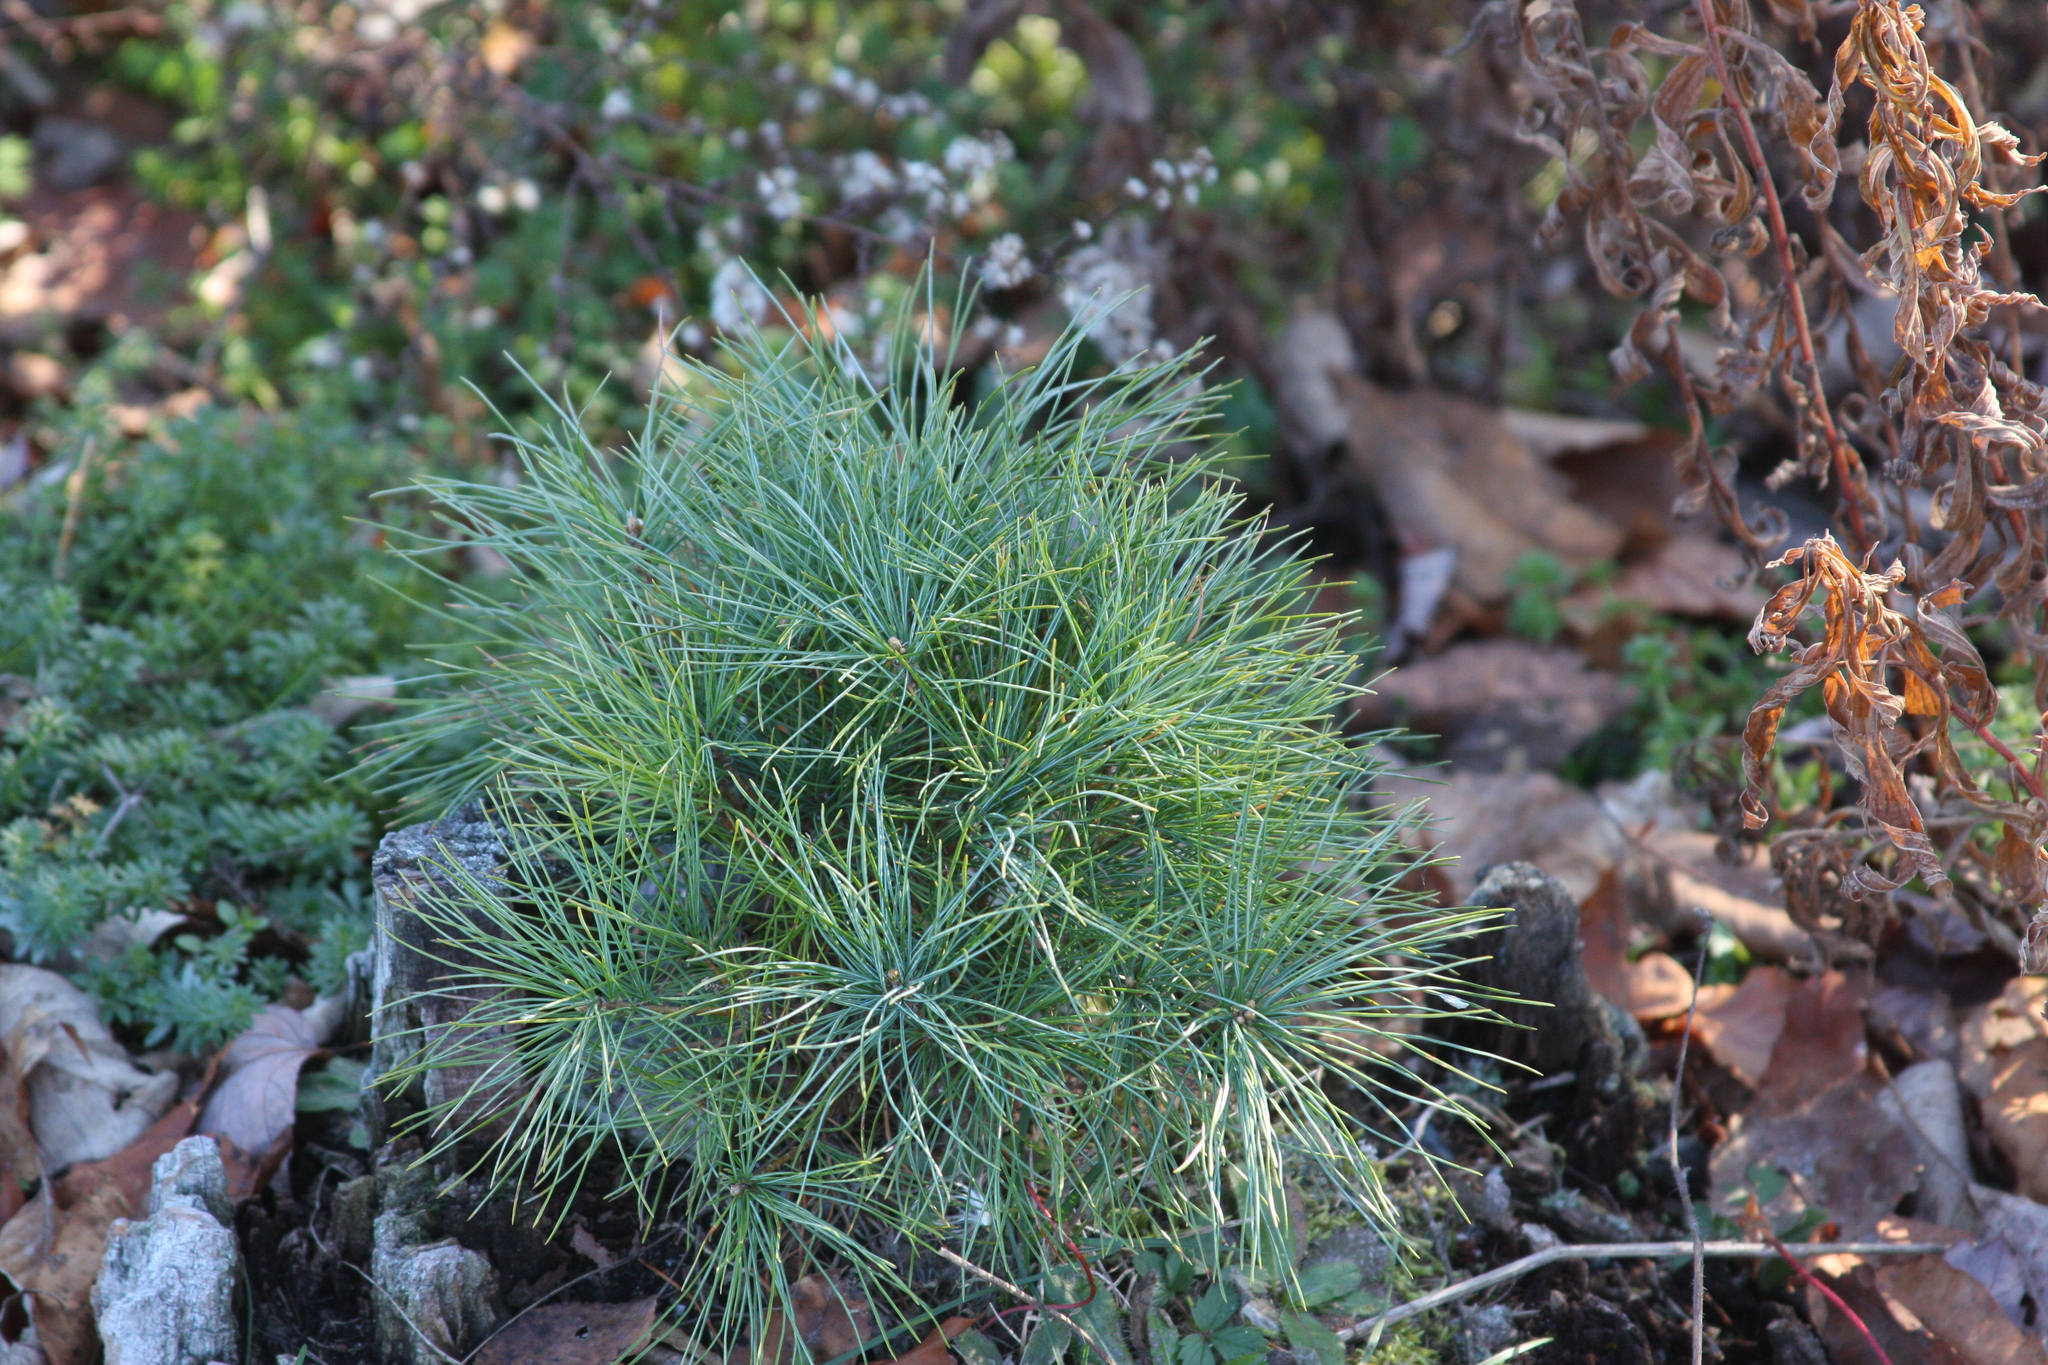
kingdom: Plantae
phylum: Tracheophyta
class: Pinopsida
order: Pinales
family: Pinaceae
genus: Pinus
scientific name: Pinus strobus
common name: Weymouth pine
